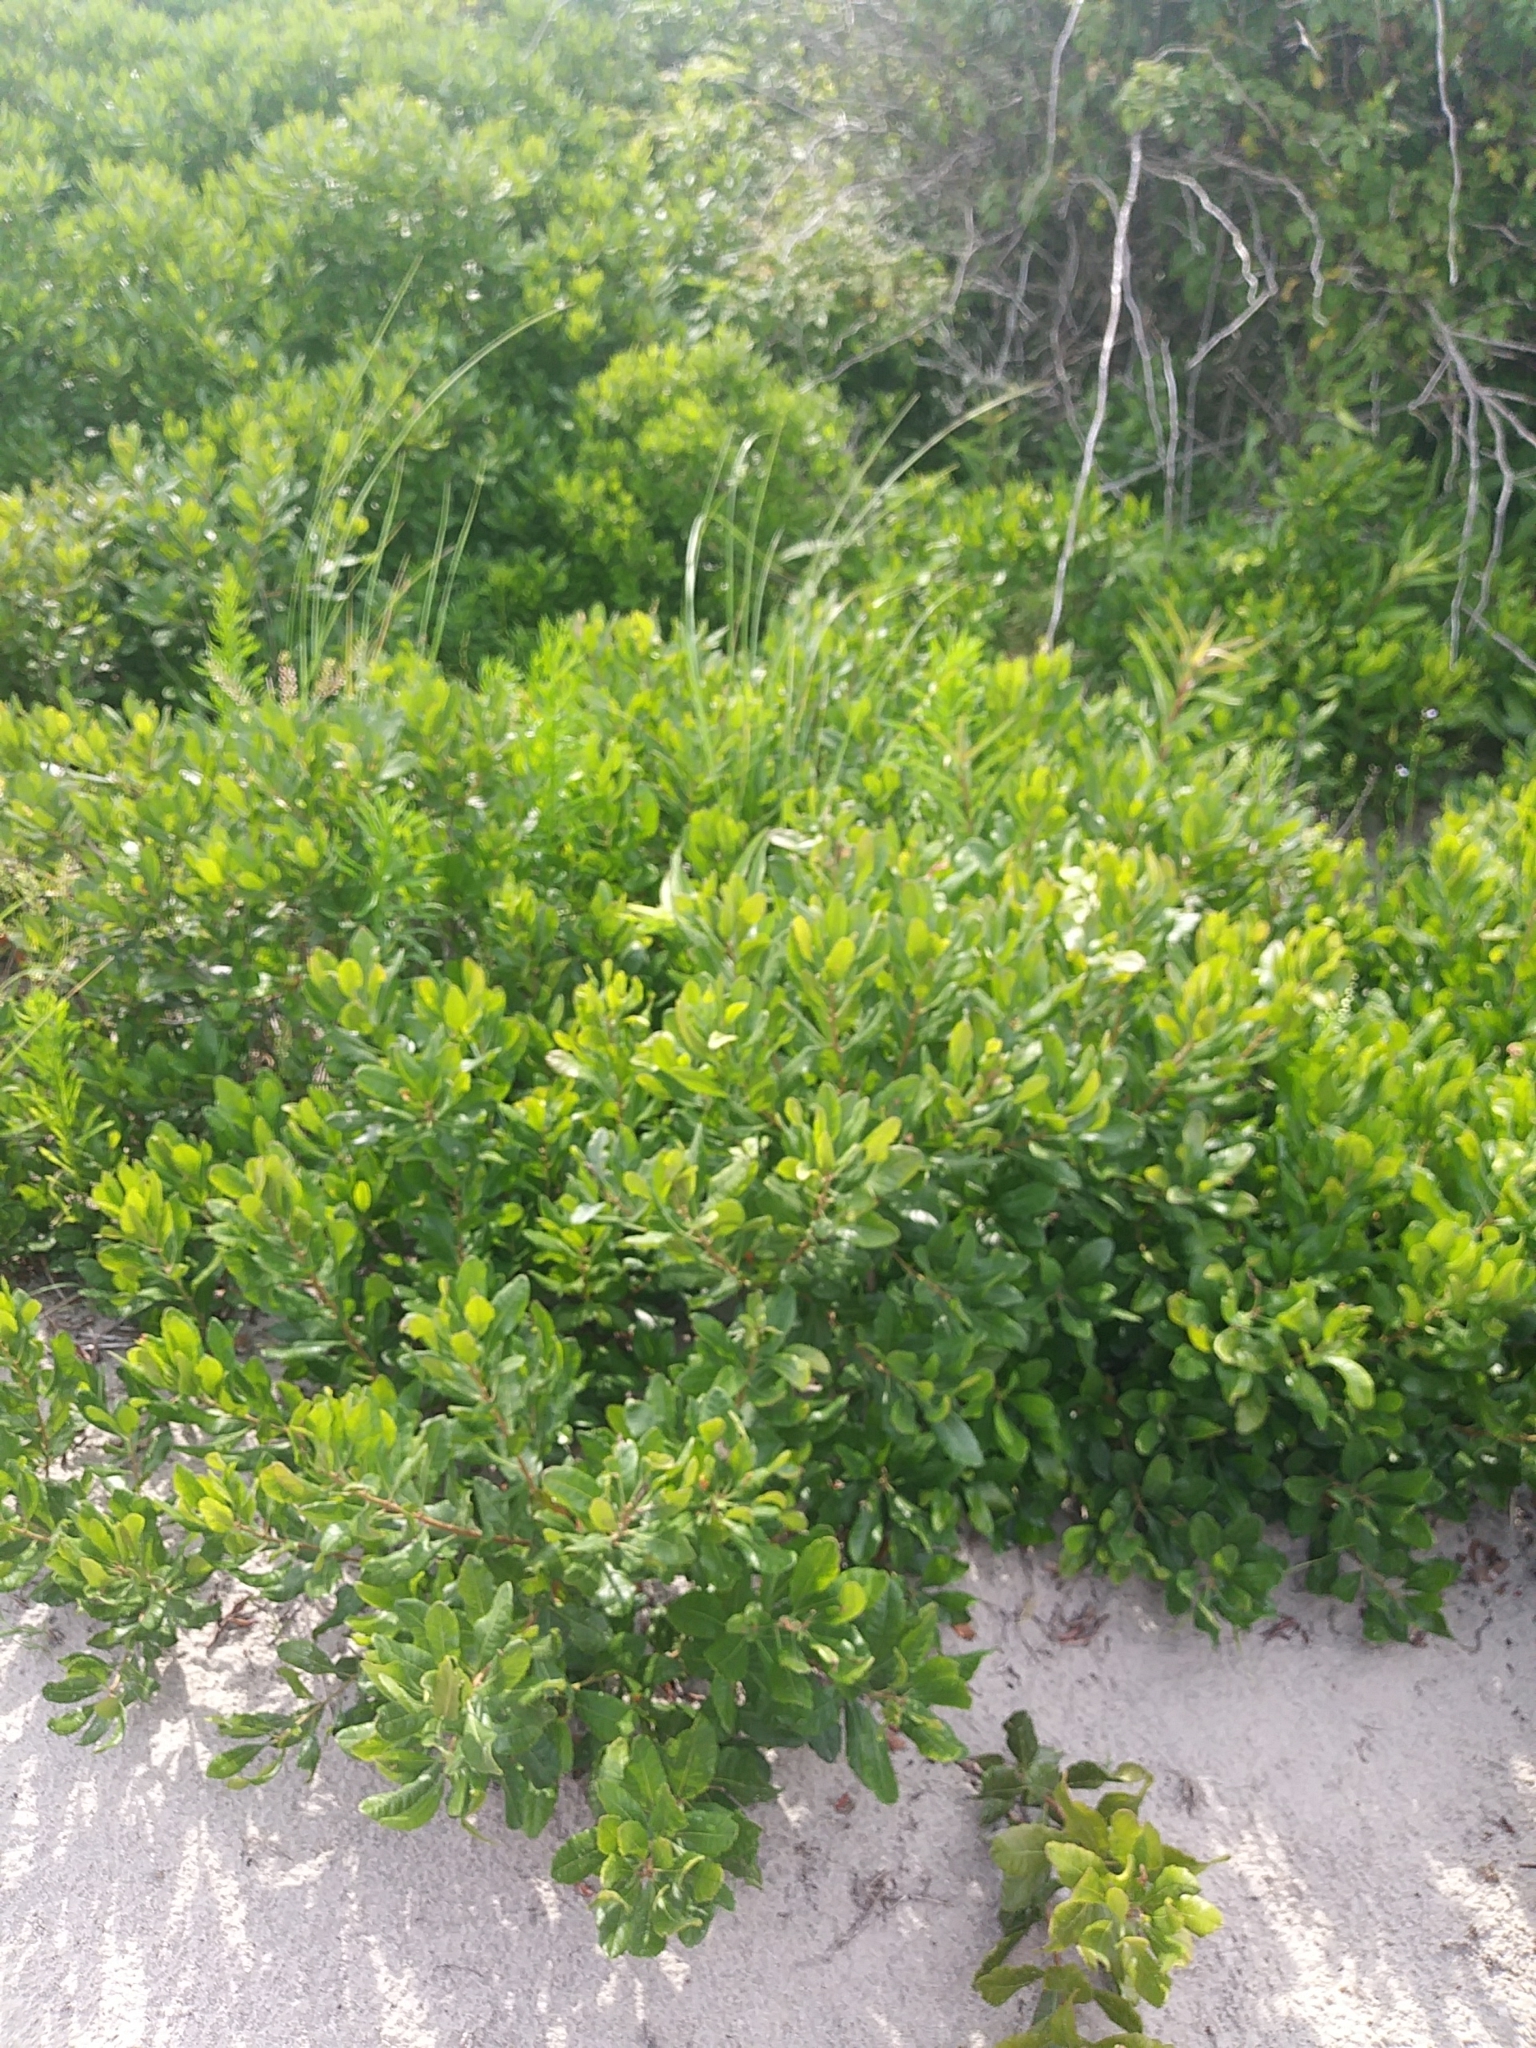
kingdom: Plantae
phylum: Tracheophyta
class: Magnoliopsida
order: Fagales
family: Myricaceae
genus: Morella
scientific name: Morella pensylvanica
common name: Northern bayberry
